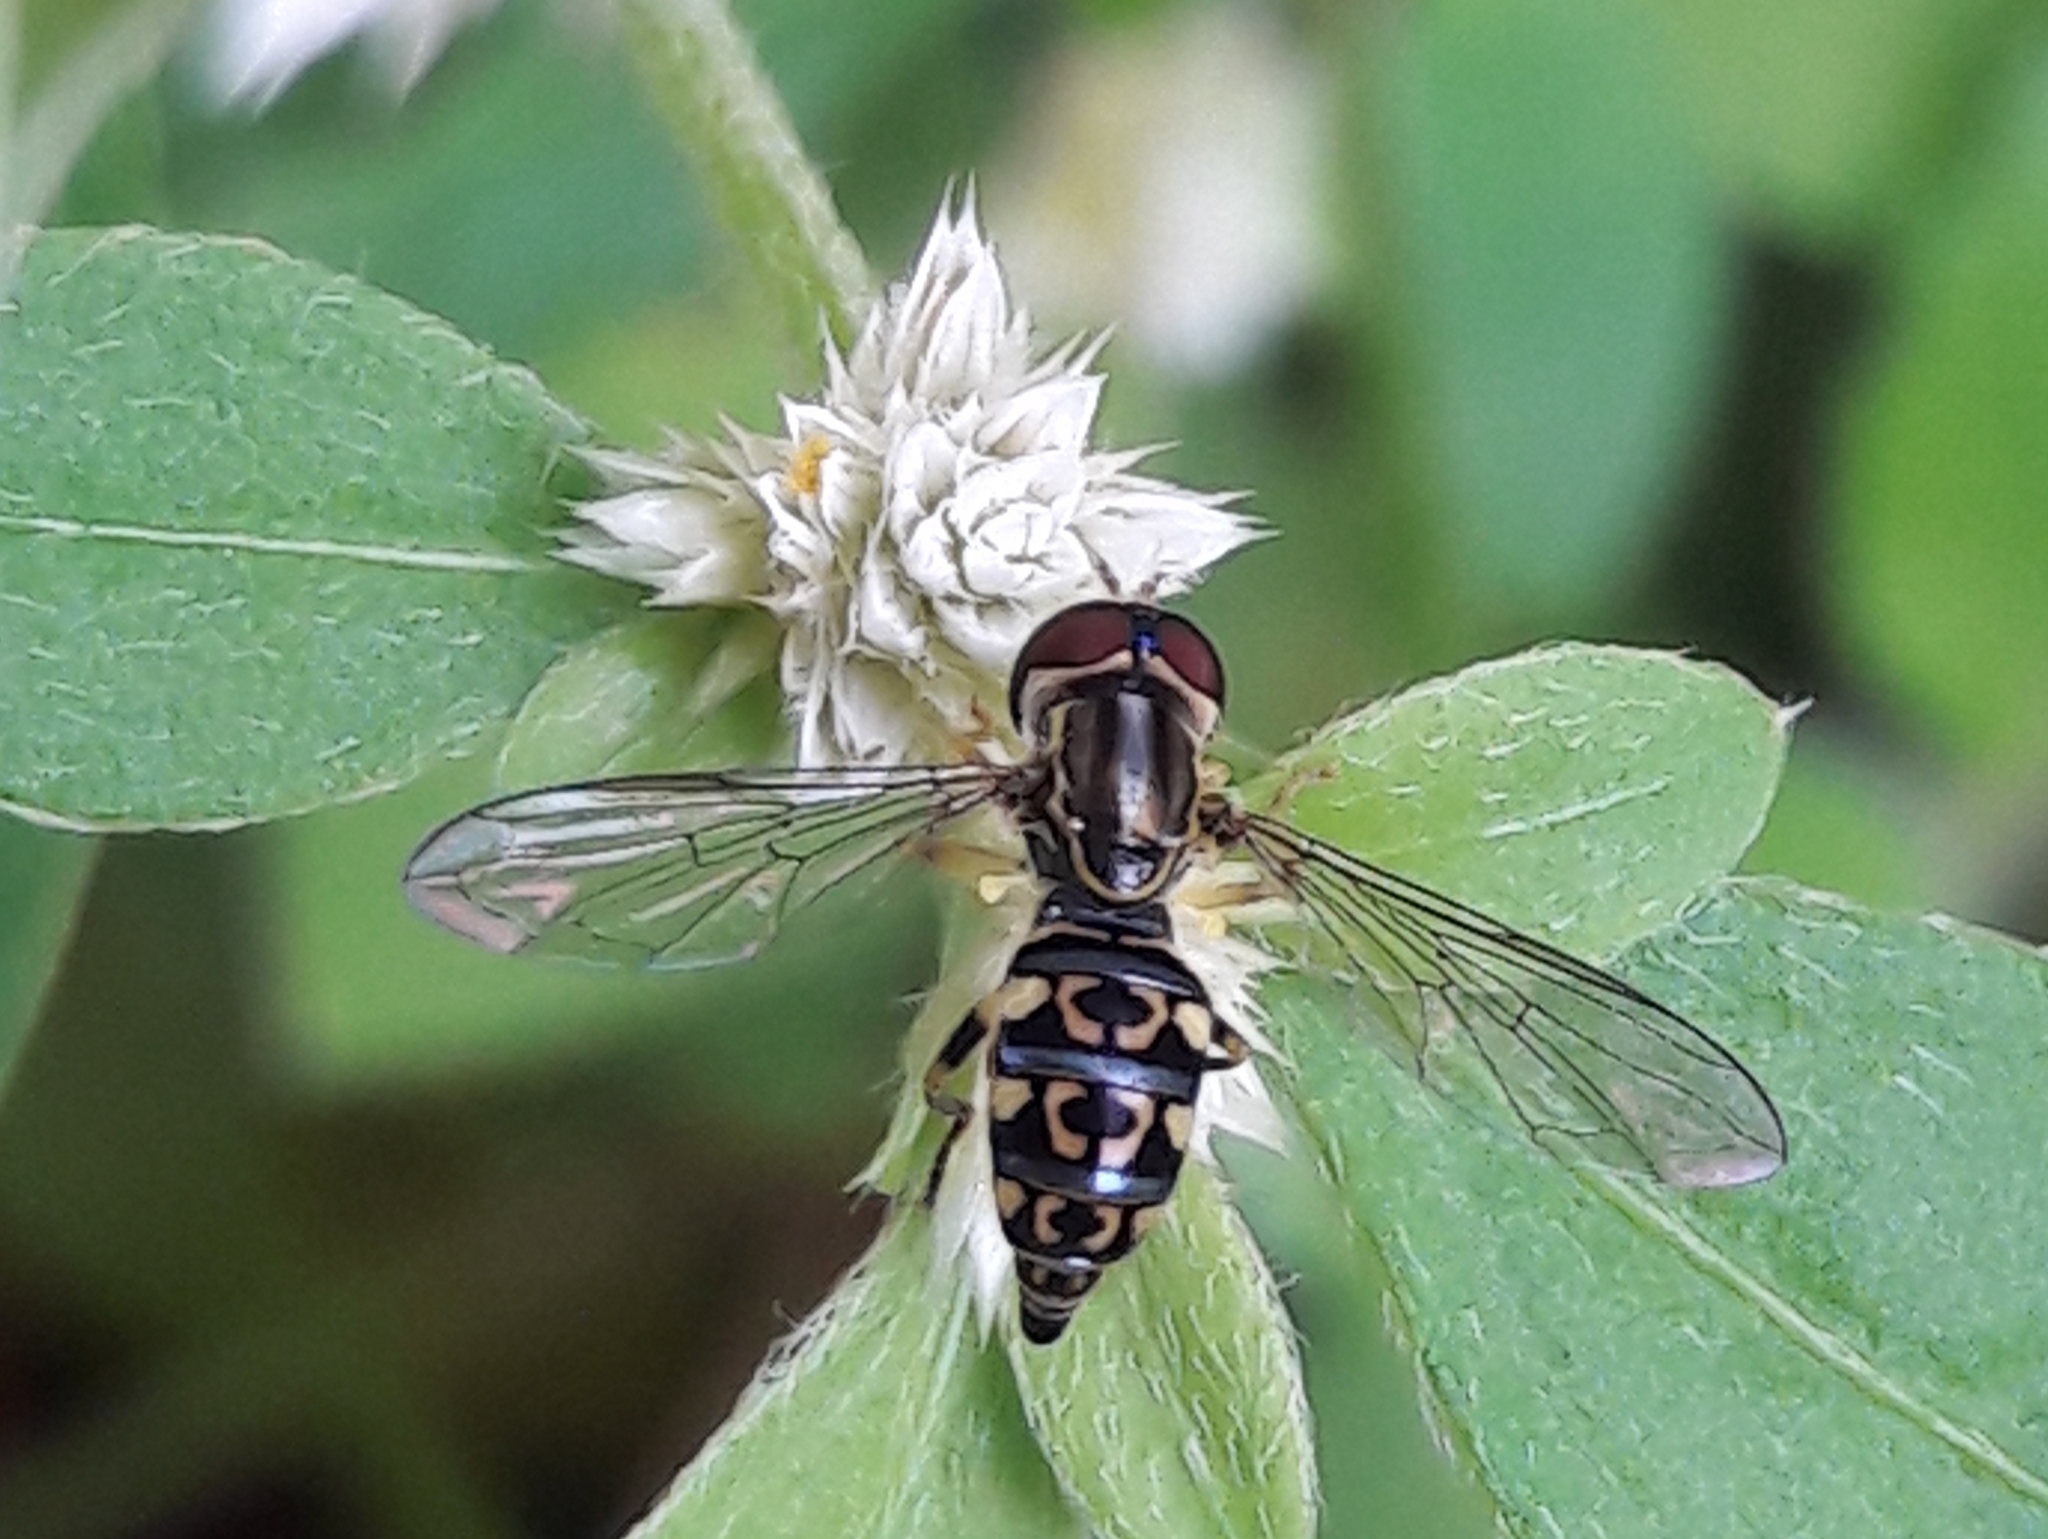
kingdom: Animalia
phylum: Arthropoda
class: Insecta
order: Diptera
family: Syrphidae
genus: Toxomerus
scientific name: Toxomerus virgulatus
